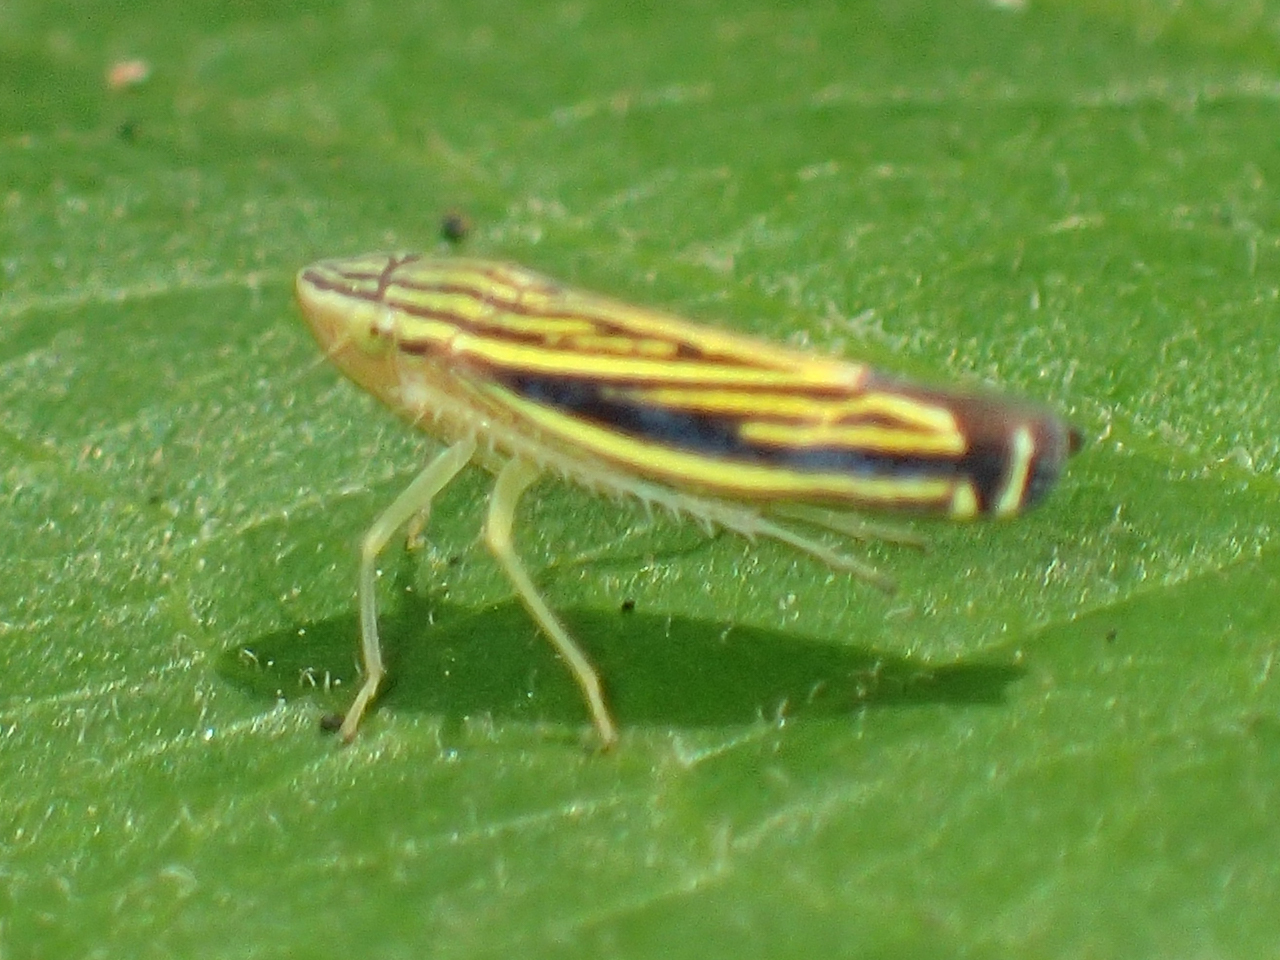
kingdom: Animalia
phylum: Arthropoda
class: Insecta
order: Hemiptera
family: Cicadellidae
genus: Sibovia
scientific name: Sibovia occatoria
